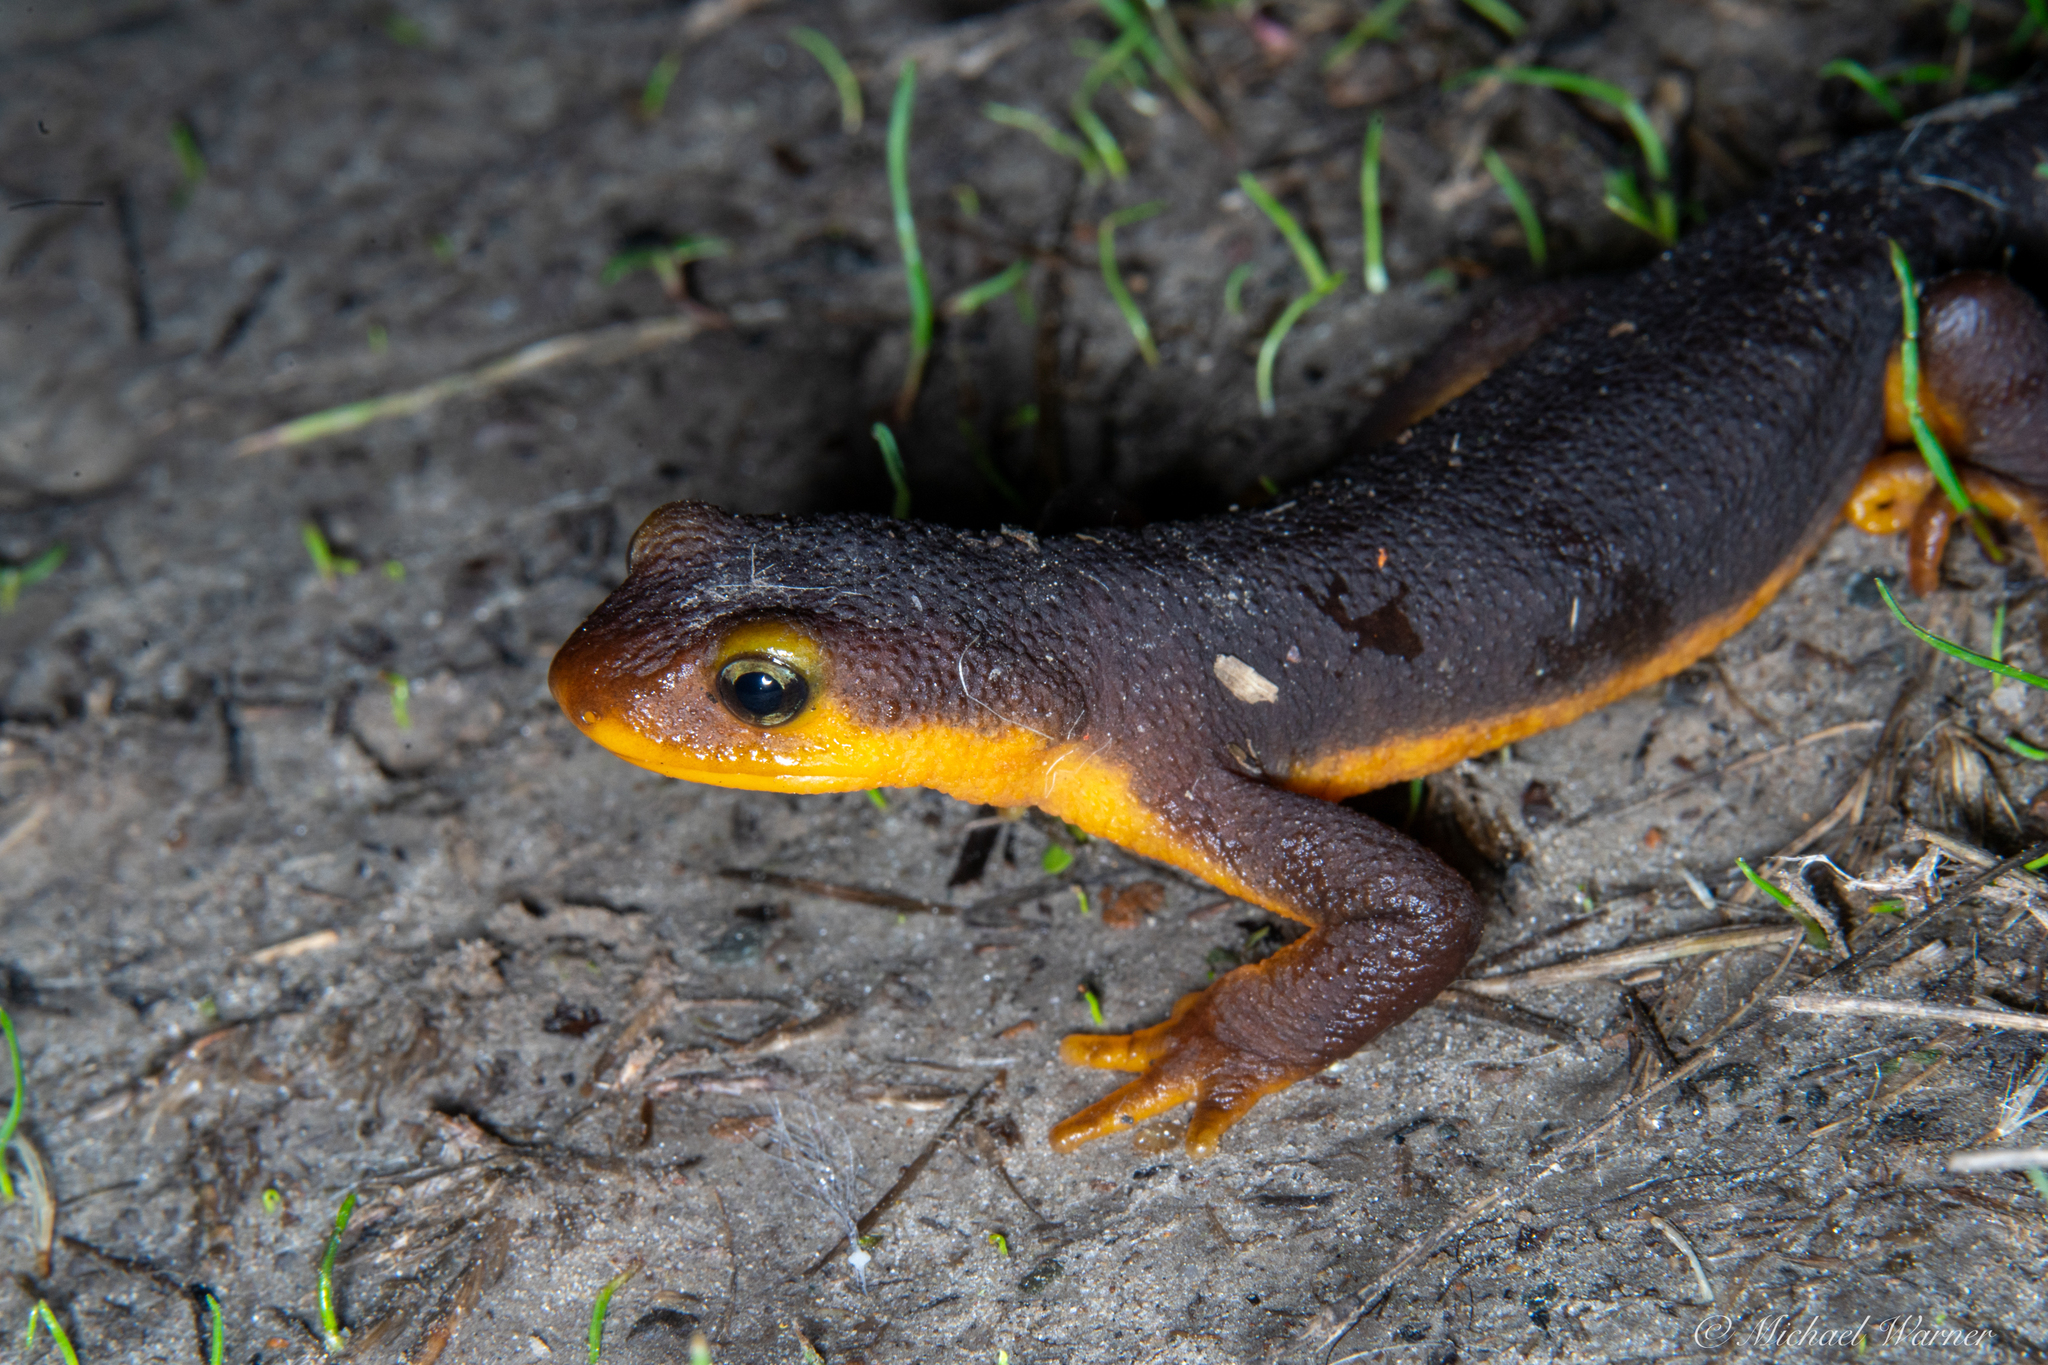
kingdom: Animalia
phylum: Chordata
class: Amphibia
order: Caudata
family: Salamandridae
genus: Taricha
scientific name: Taricha torosa
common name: California newt
